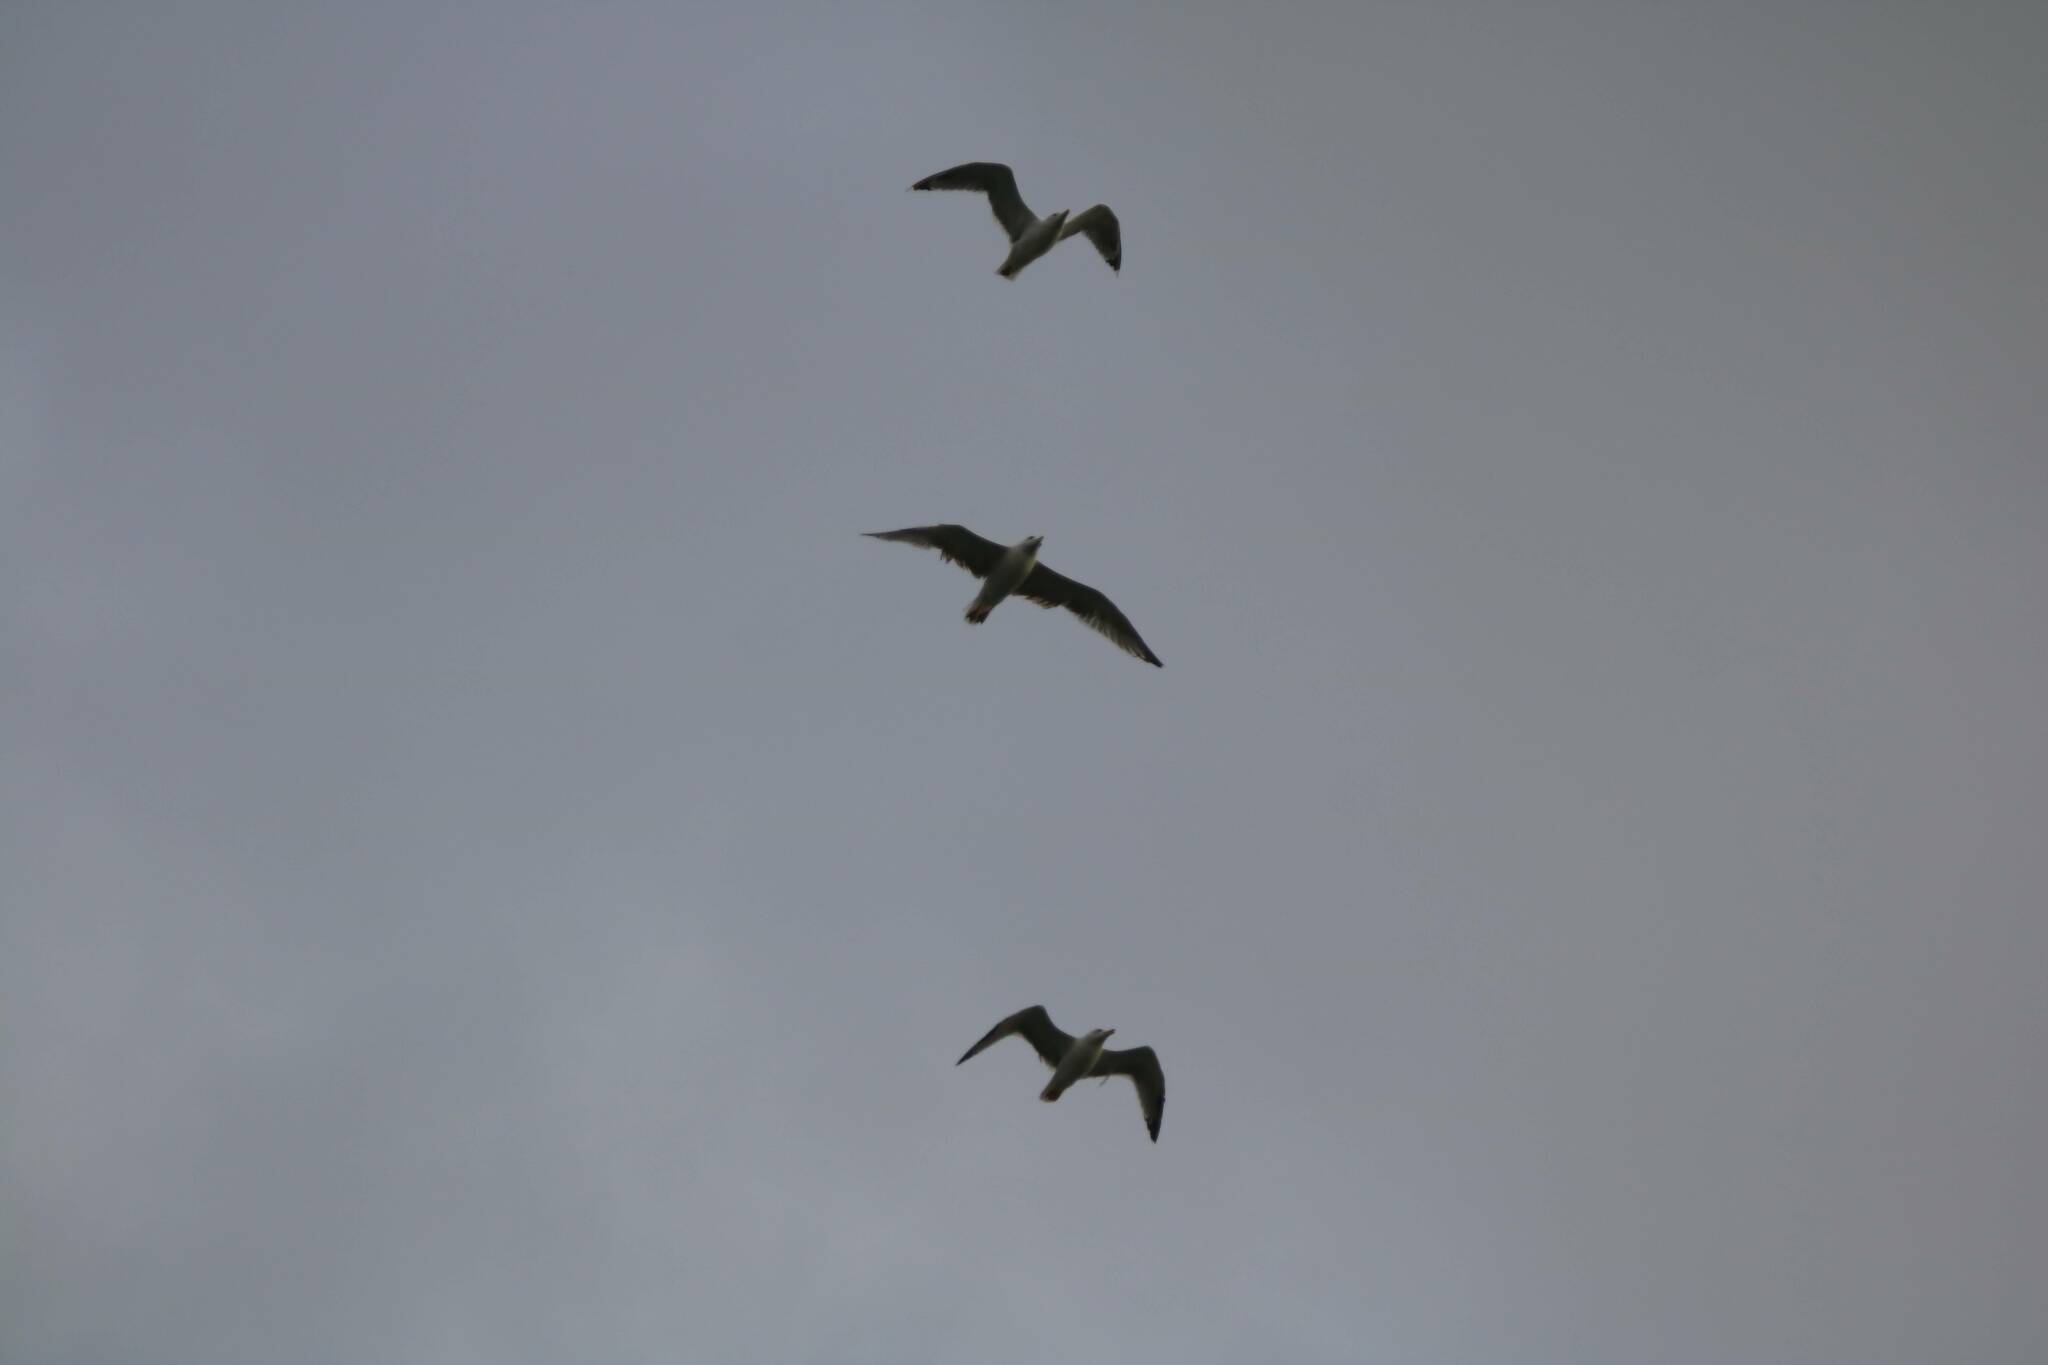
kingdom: Animalia
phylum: Chordata
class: Aves
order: Charadriiformes
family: Laridae
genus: Larus
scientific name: Larus michahellis
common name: Yellow-legged gull
